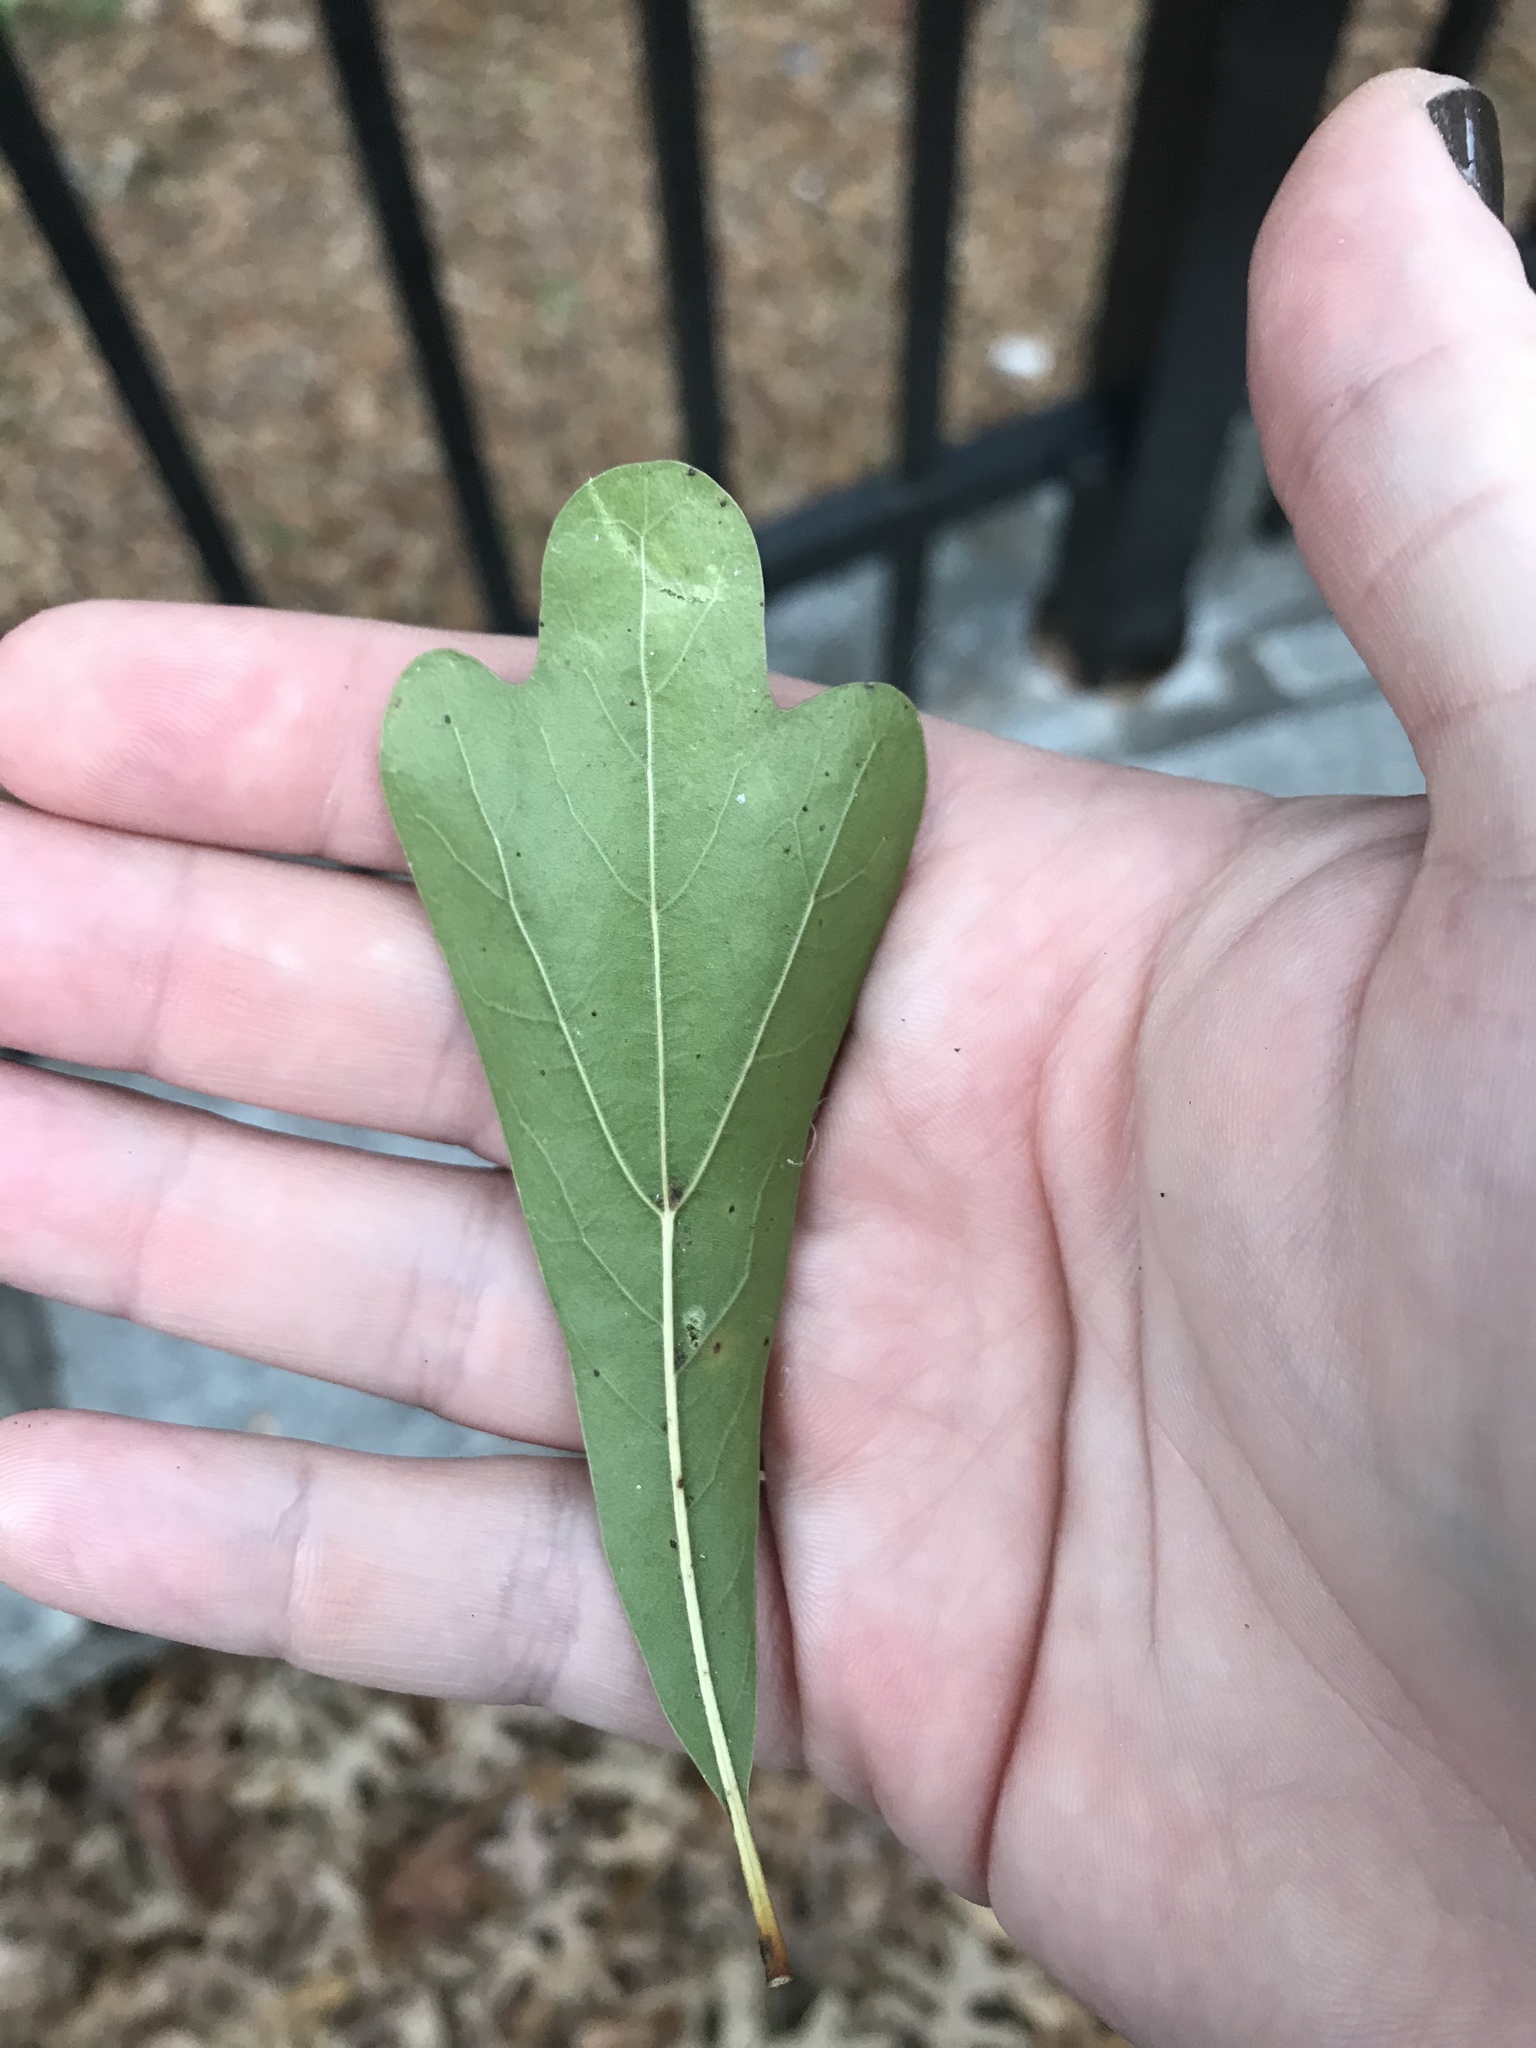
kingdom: Plantae
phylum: Tracheophyta
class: Magnoliopsida
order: Fagales
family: Fagaceae
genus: Quercus
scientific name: Quercus nigra
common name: Water oak
